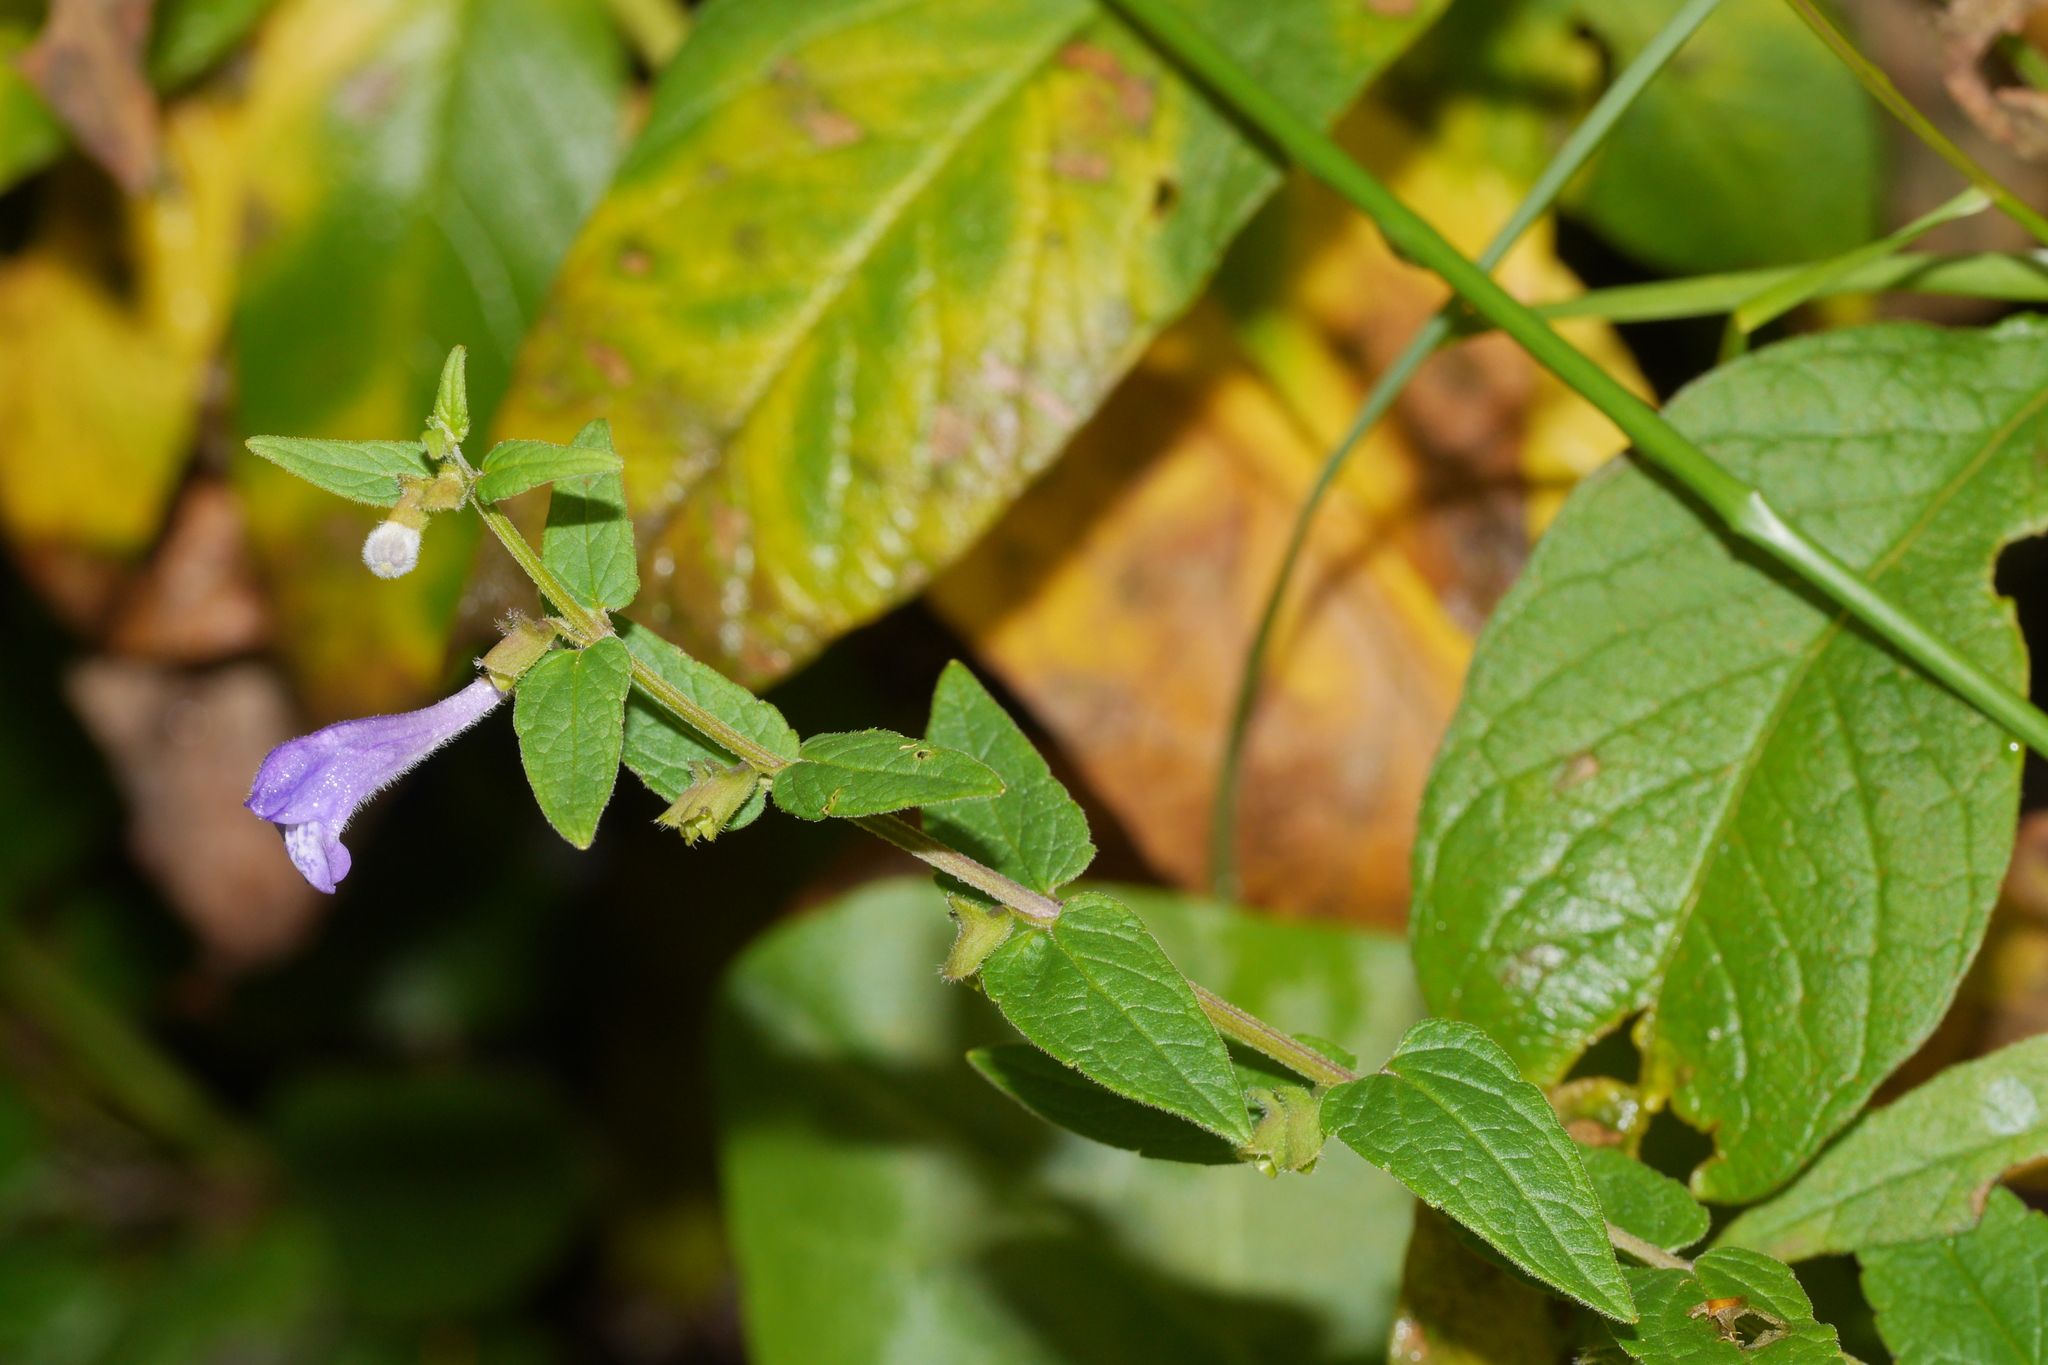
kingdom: Plantae
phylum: Tracheophyta
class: Magnoliopsida
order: Lamiales
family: Lamiaceae
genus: Scutellaria
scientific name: Scutellaria galericulata
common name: Skullcap
